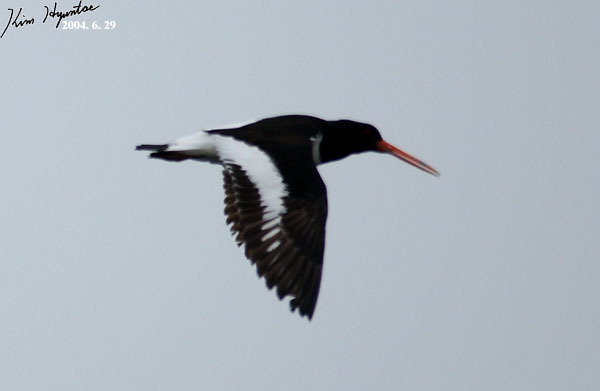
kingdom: Animalia
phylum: Chordata
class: Aves
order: Charadriiformes
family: Haematopodidae
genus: Haematopus
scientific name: Haematopus ostralegus
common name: Eurasian oystercatcher
